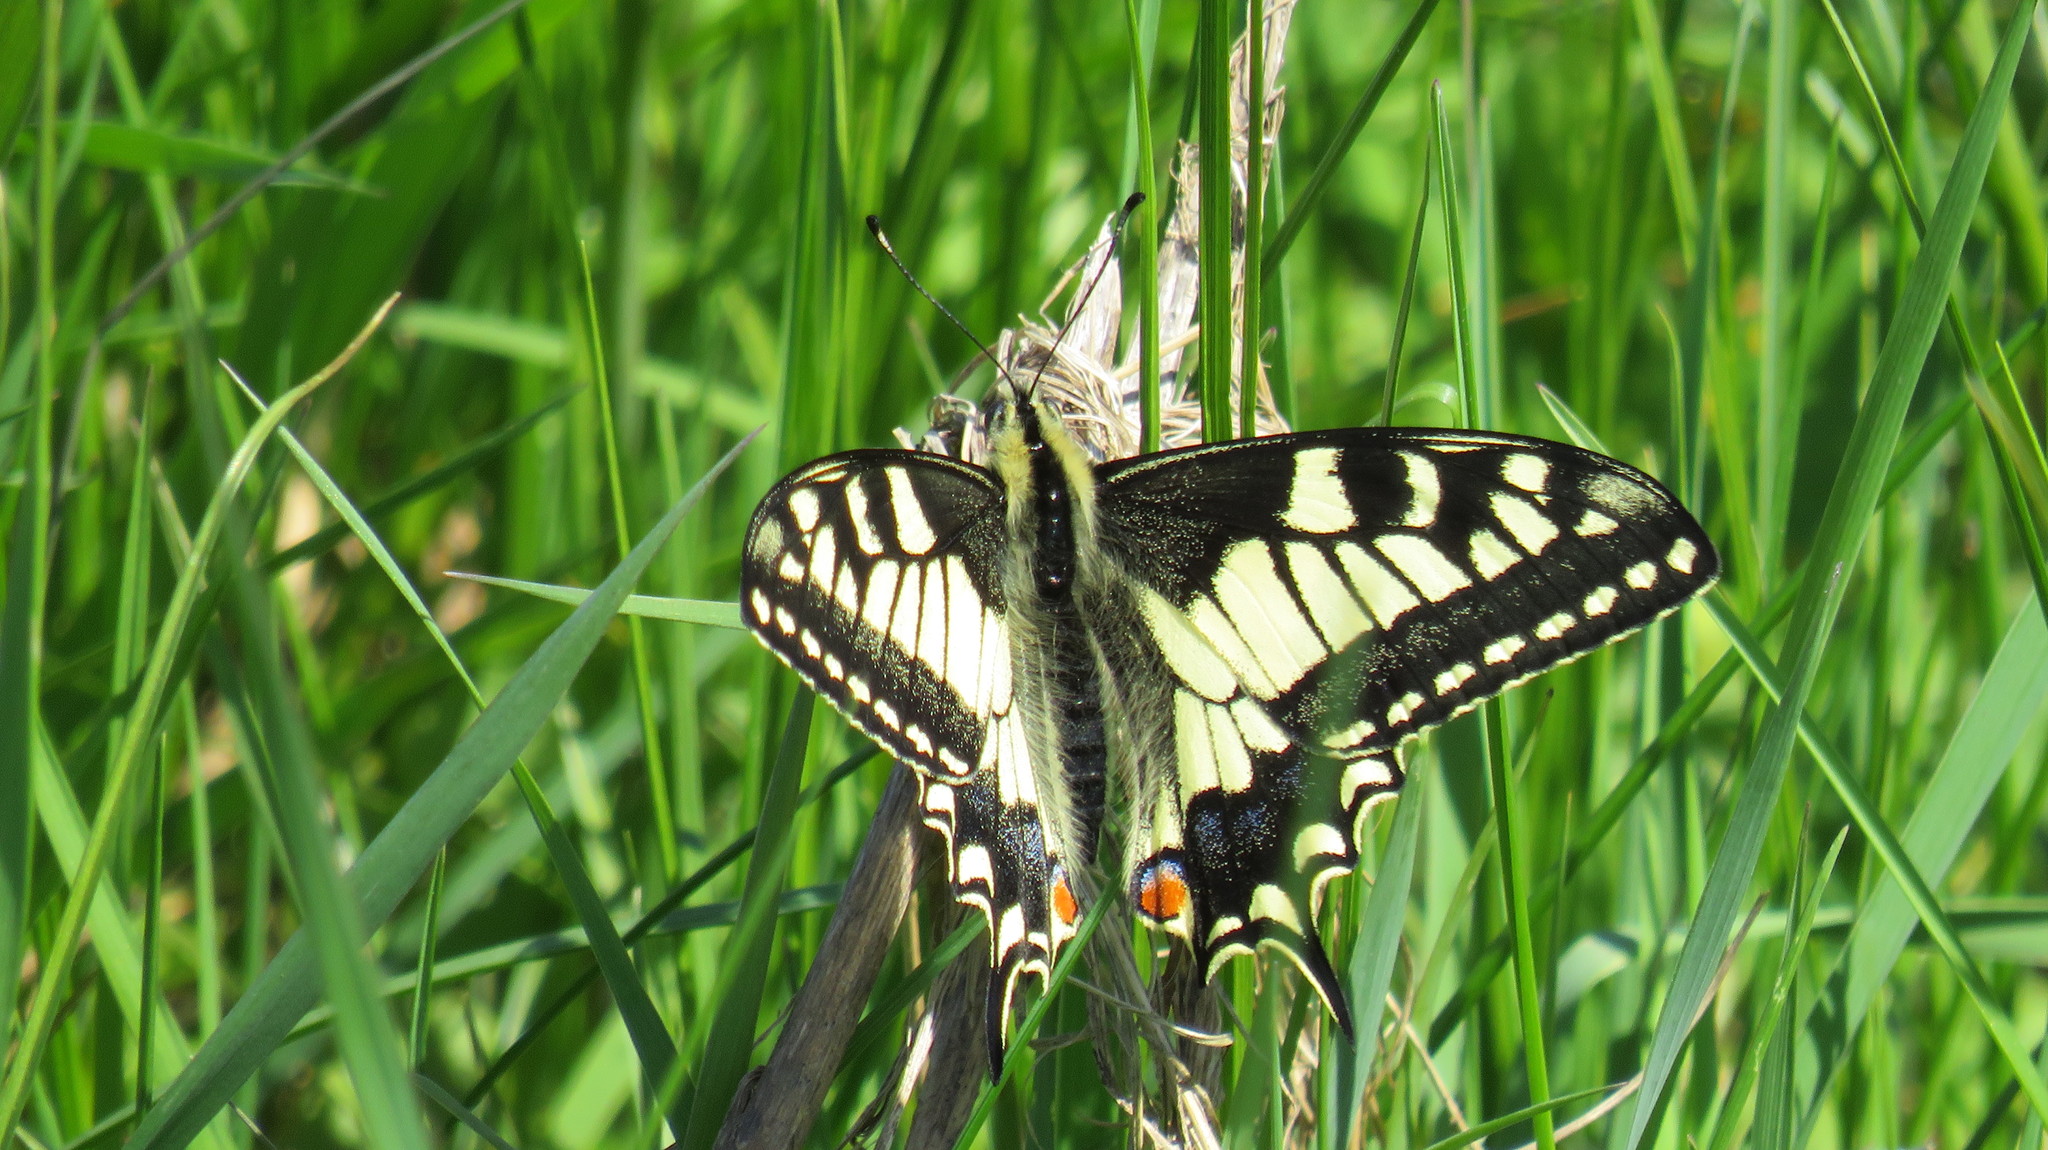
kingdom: Animalia
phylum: Arthropoda
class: Insecta
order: Lepidoptera
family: Papilionidae
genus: Papilio
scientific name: Papilio machaon
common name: Swallowtail
